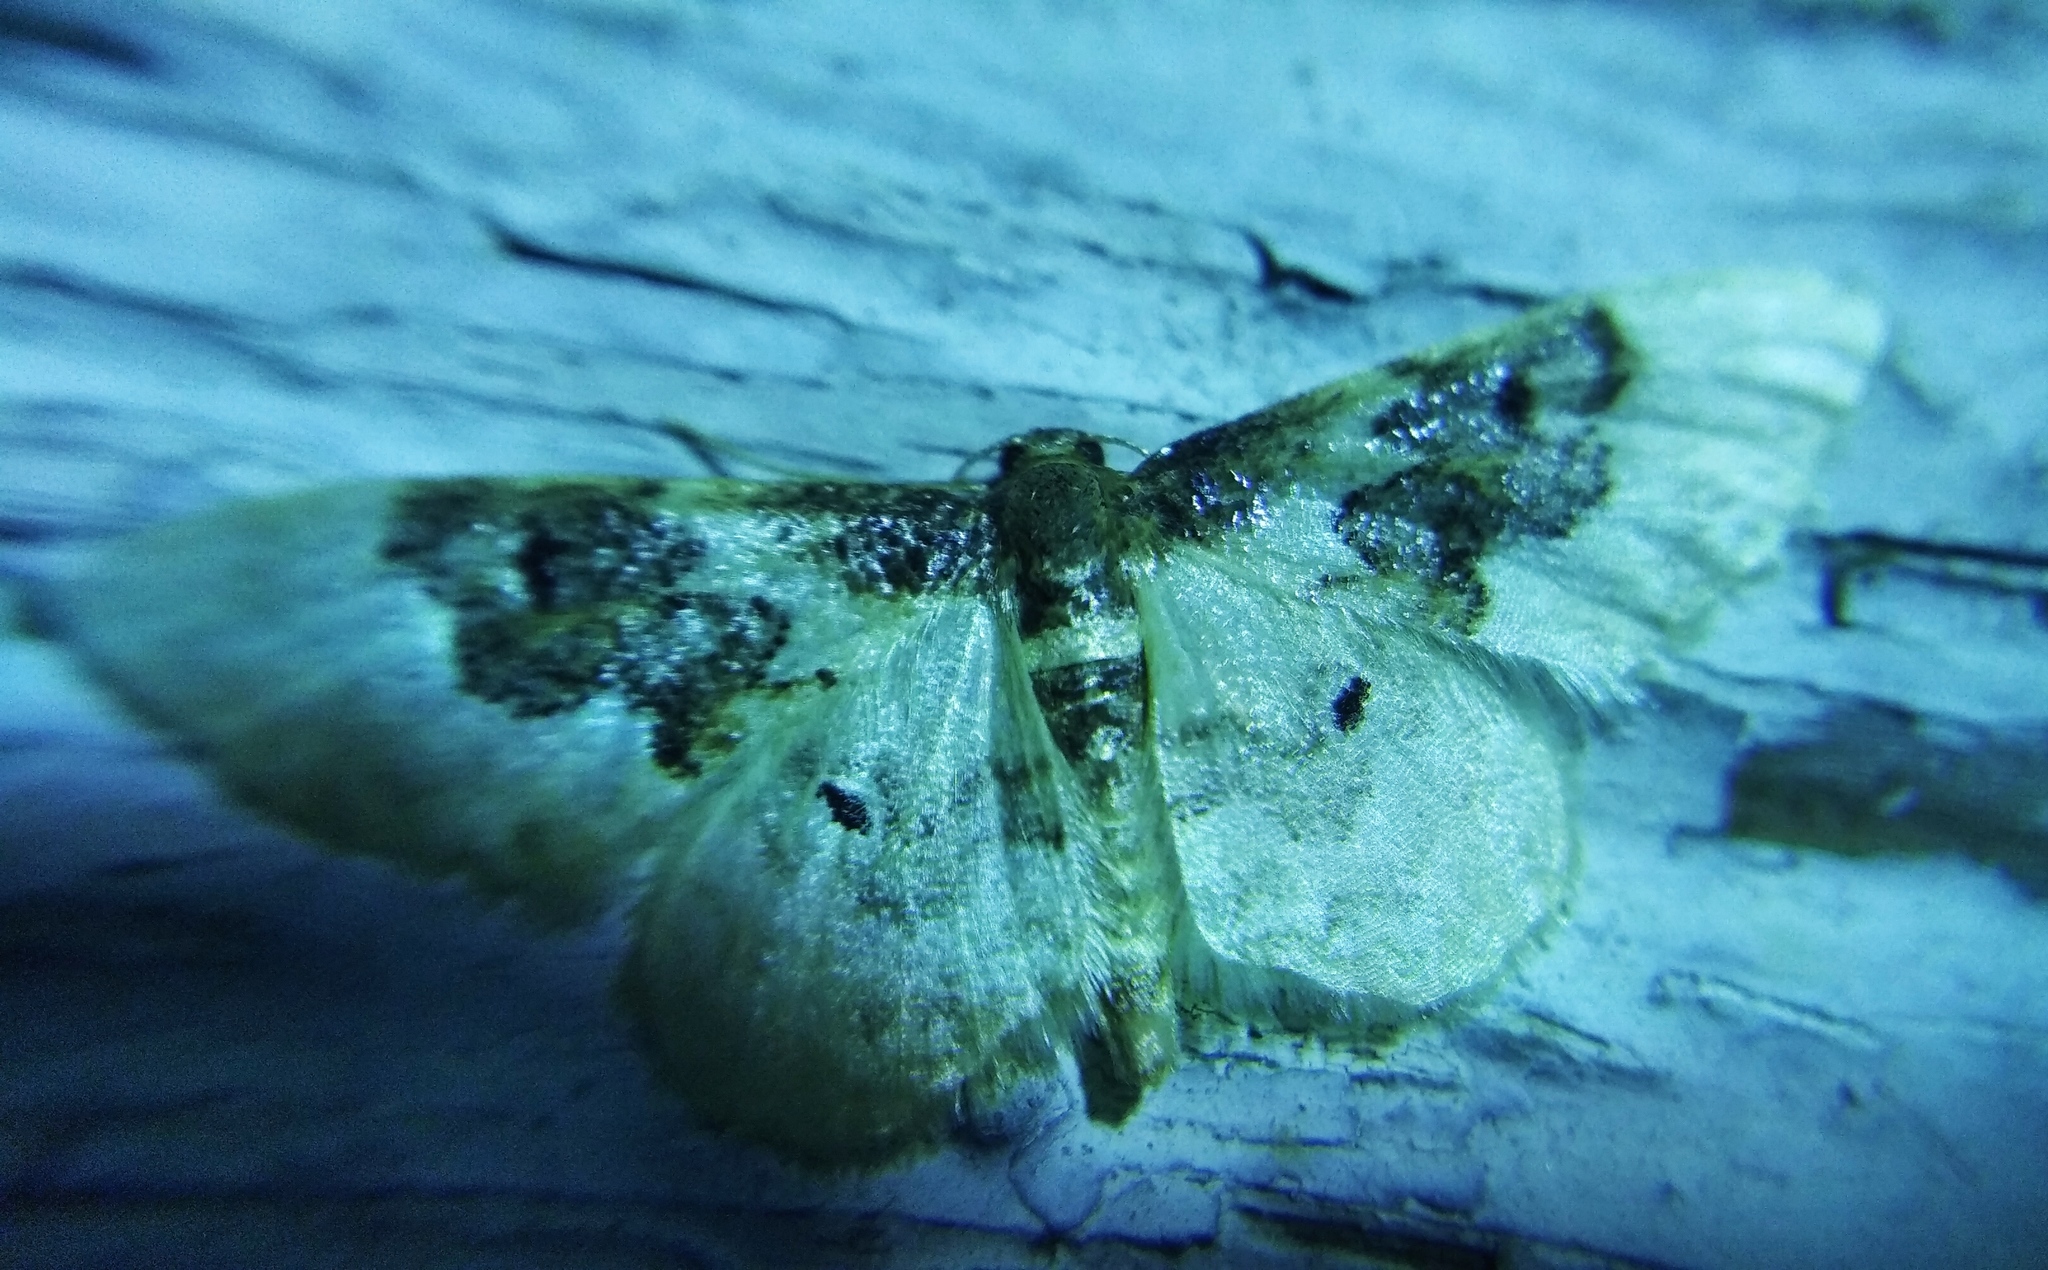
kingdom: Animalia
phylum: Arthropoda
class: Insecta
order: Lepidoptera
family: Geometridae
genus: Idaea
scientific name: Idaea rusticata
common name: Least carpet
